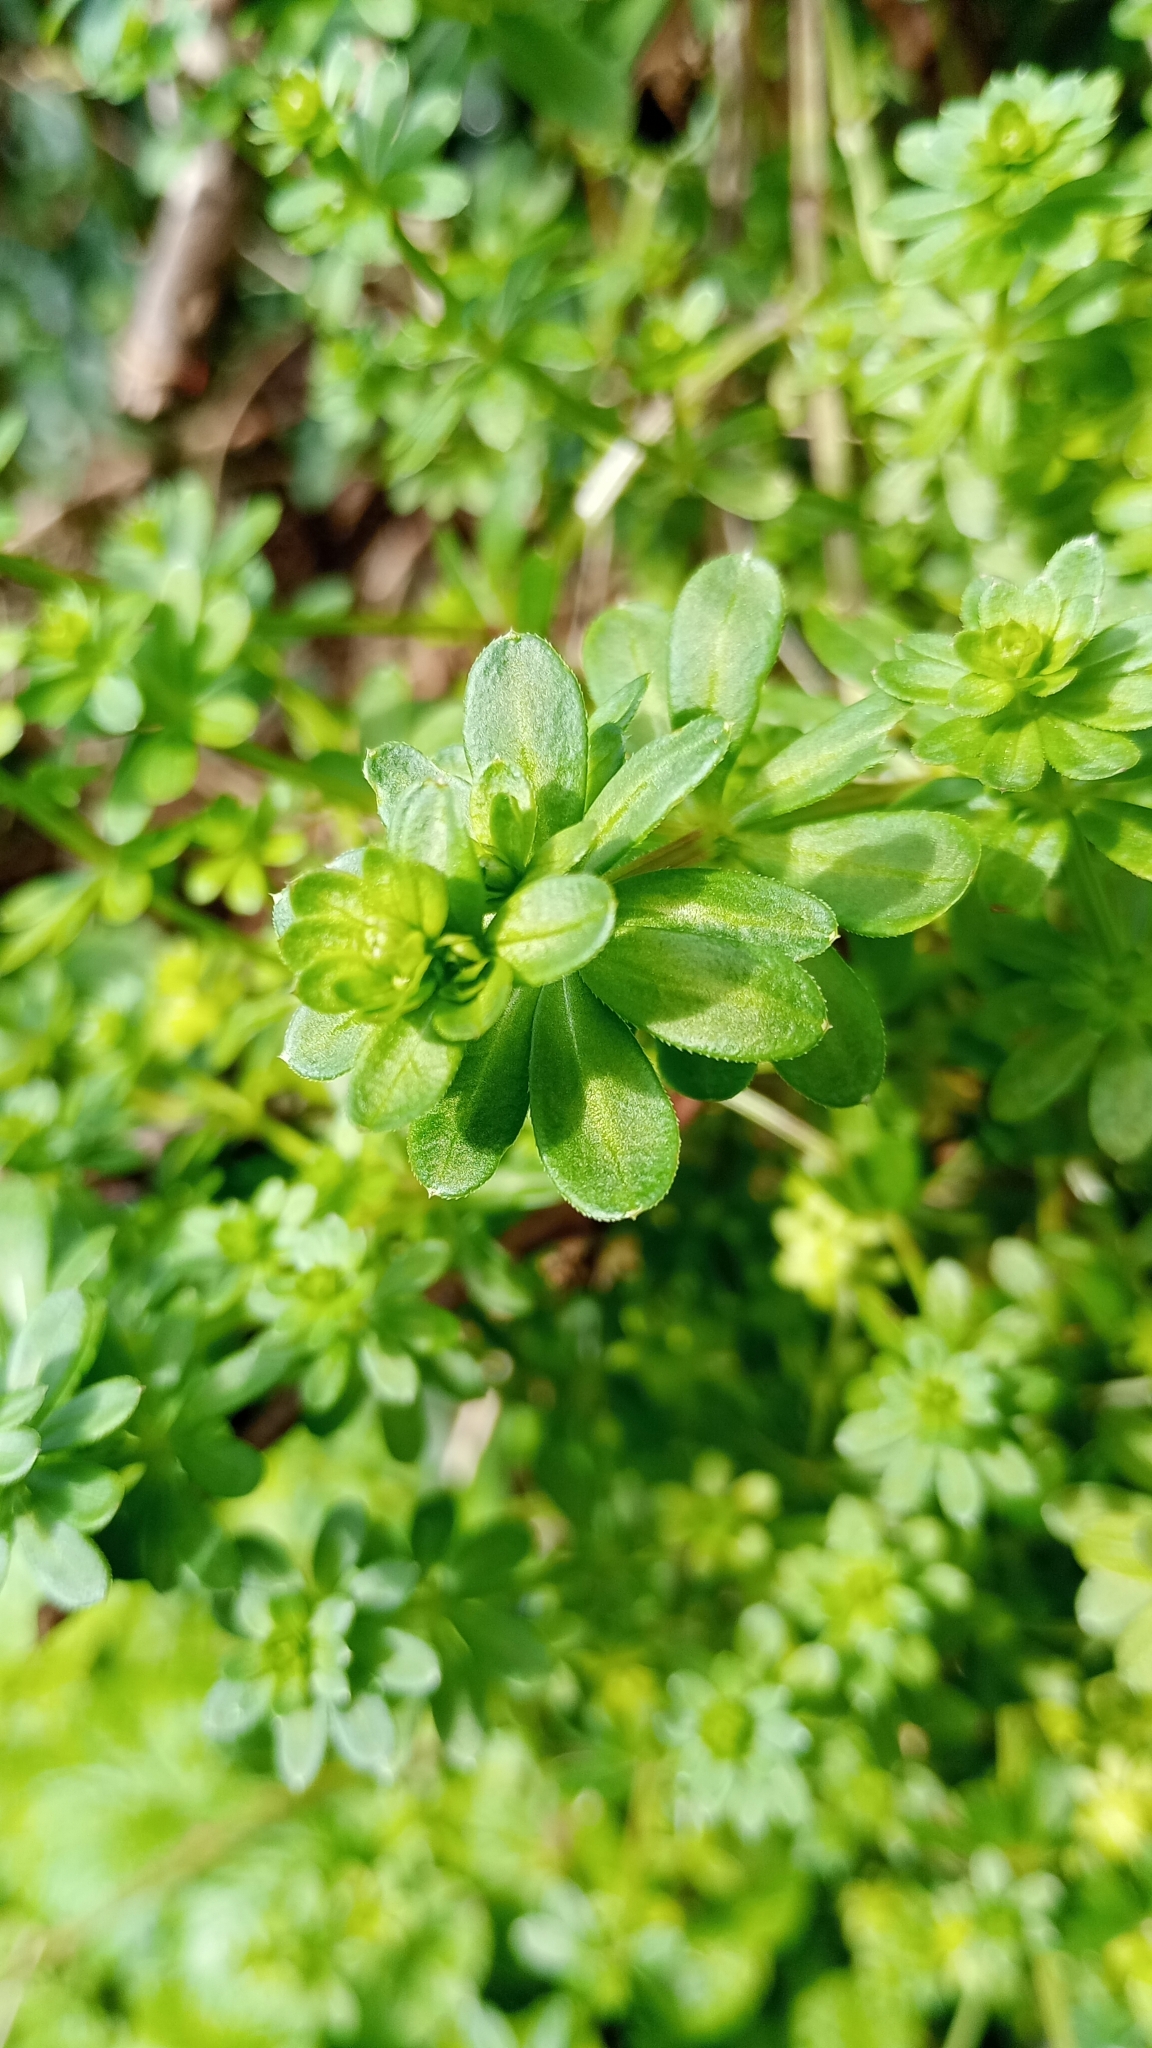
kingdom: Plantae
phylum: Tracheophyta
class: Magnoliopsida
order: Gentianales
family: Rubiaceae
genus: Galium
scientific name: Galium mollugo
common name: Hedge bedstraw
